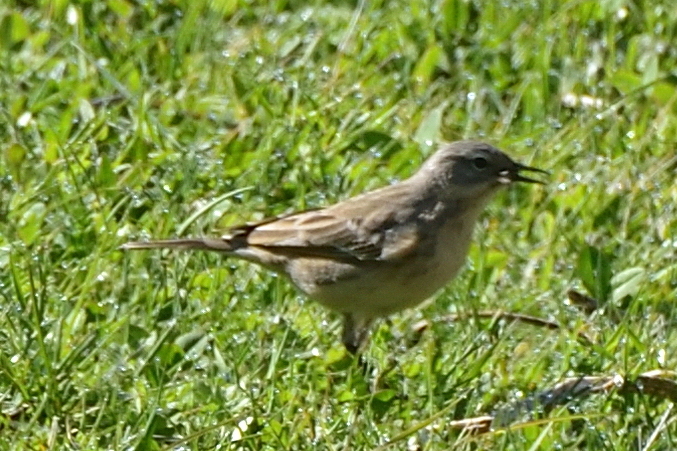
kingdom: Animalia
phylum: Chordata
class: Aves
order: Passeriformes
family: Motacillidae
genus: Anthus
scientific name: Anthus spinoletta
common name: Water pipit
